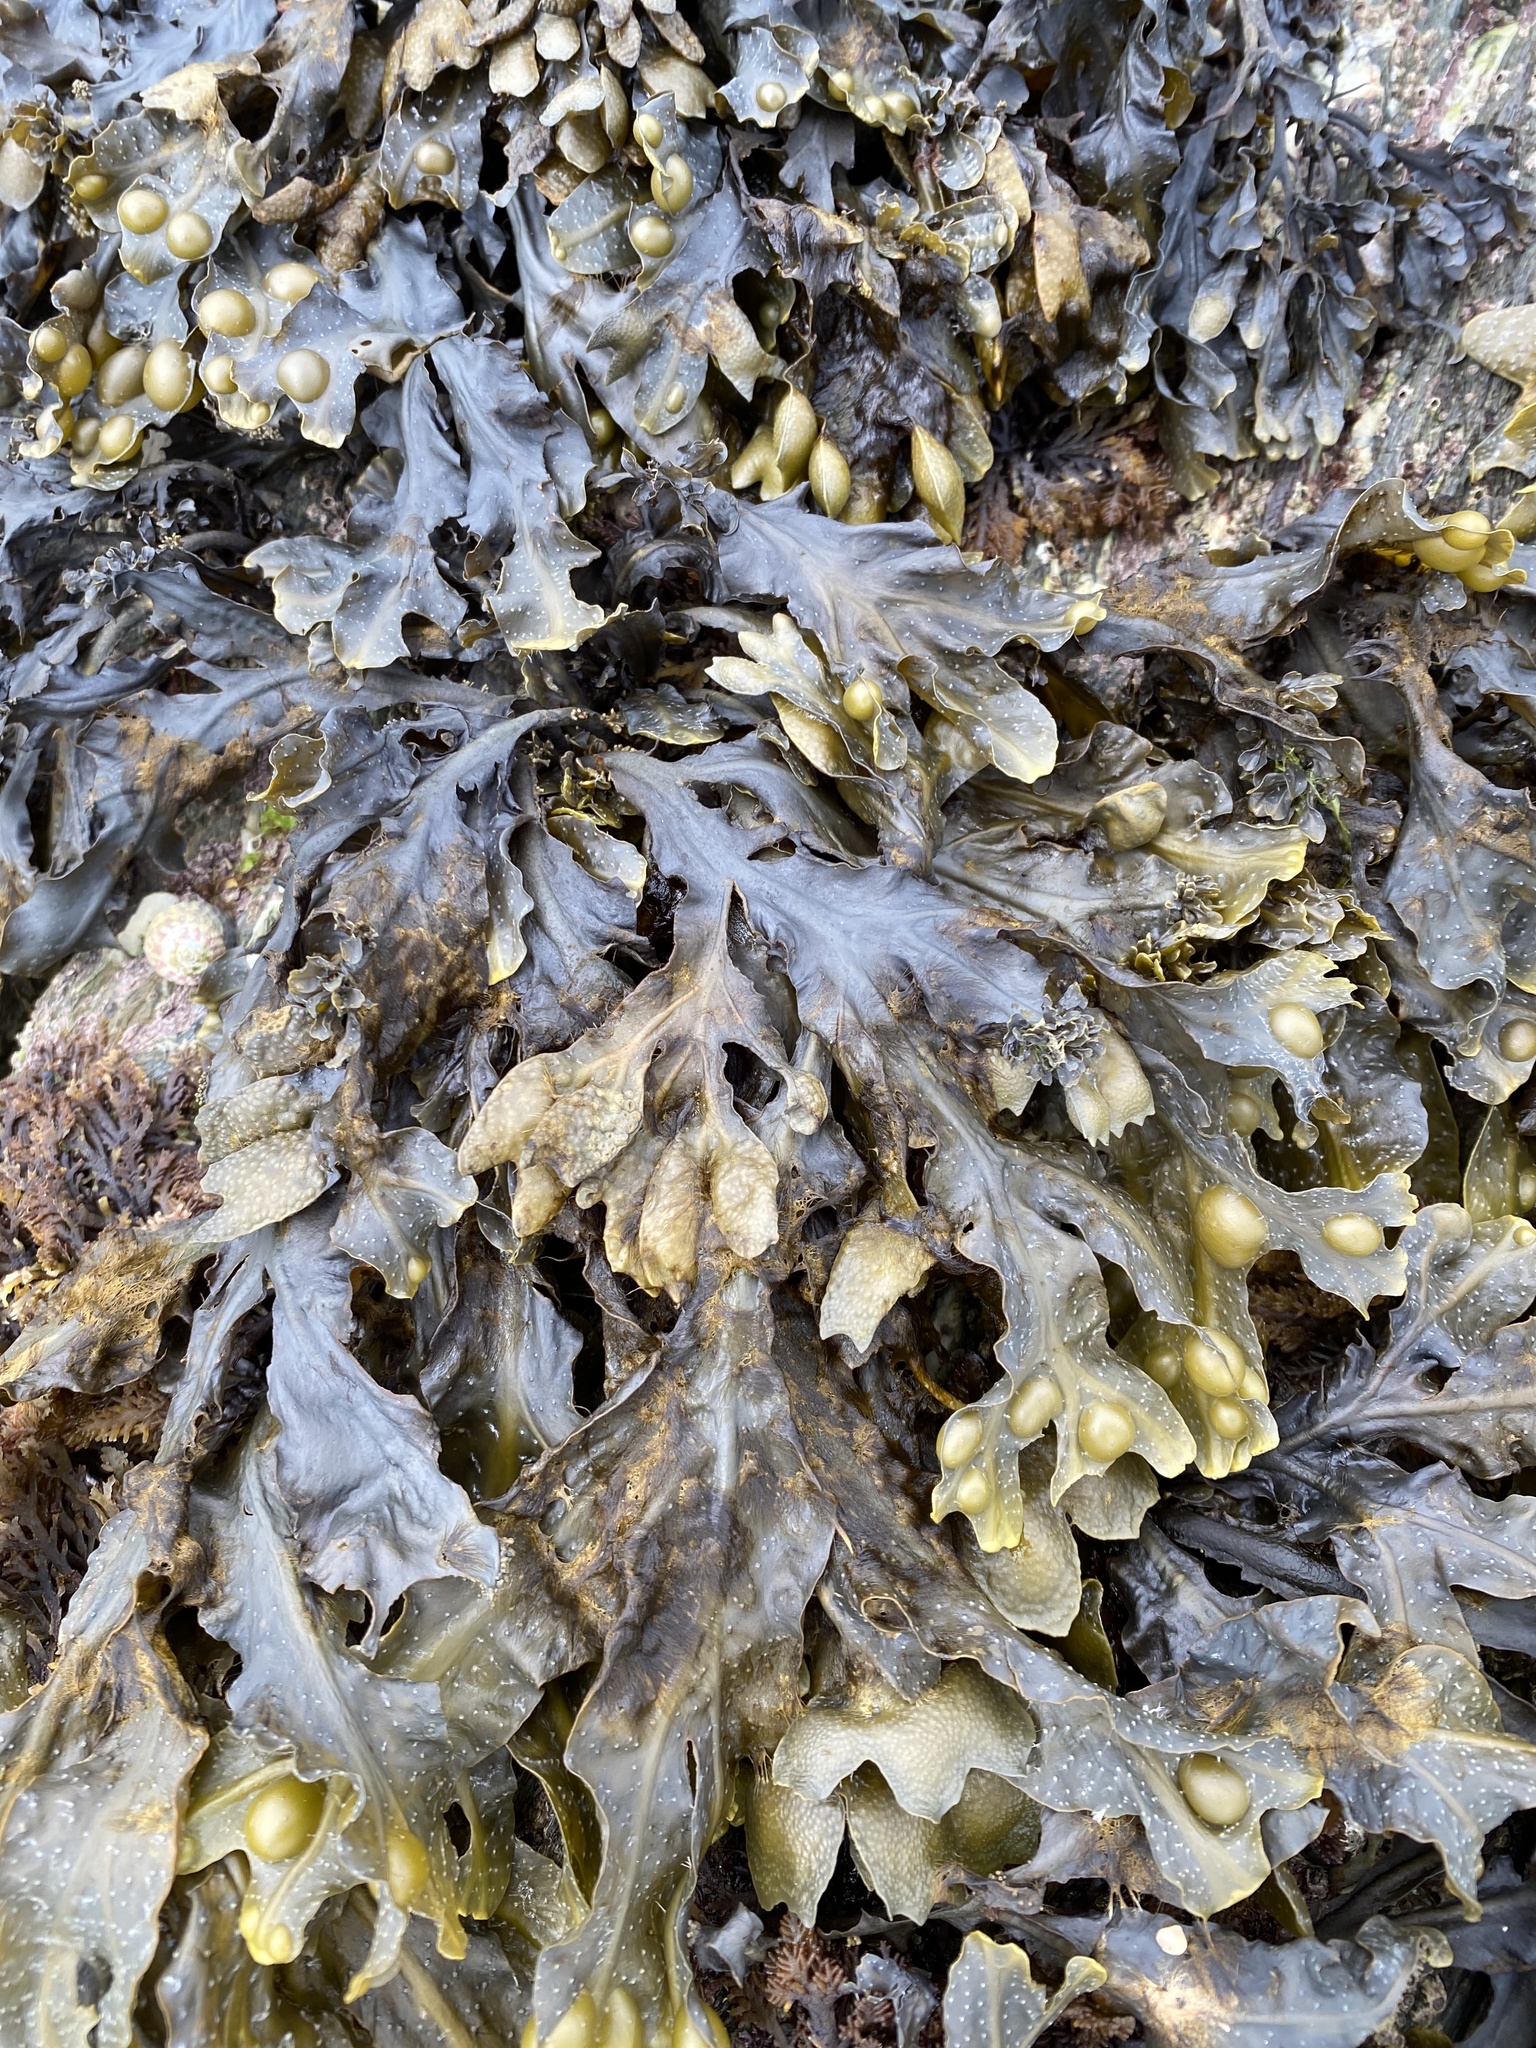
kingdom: Chromista
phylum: Ochrophyta
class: Phaeophyceae
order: Fucales
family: Fucaceae
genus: Fucus
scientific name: Fucus vesiculosus
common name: Bladder wrack
